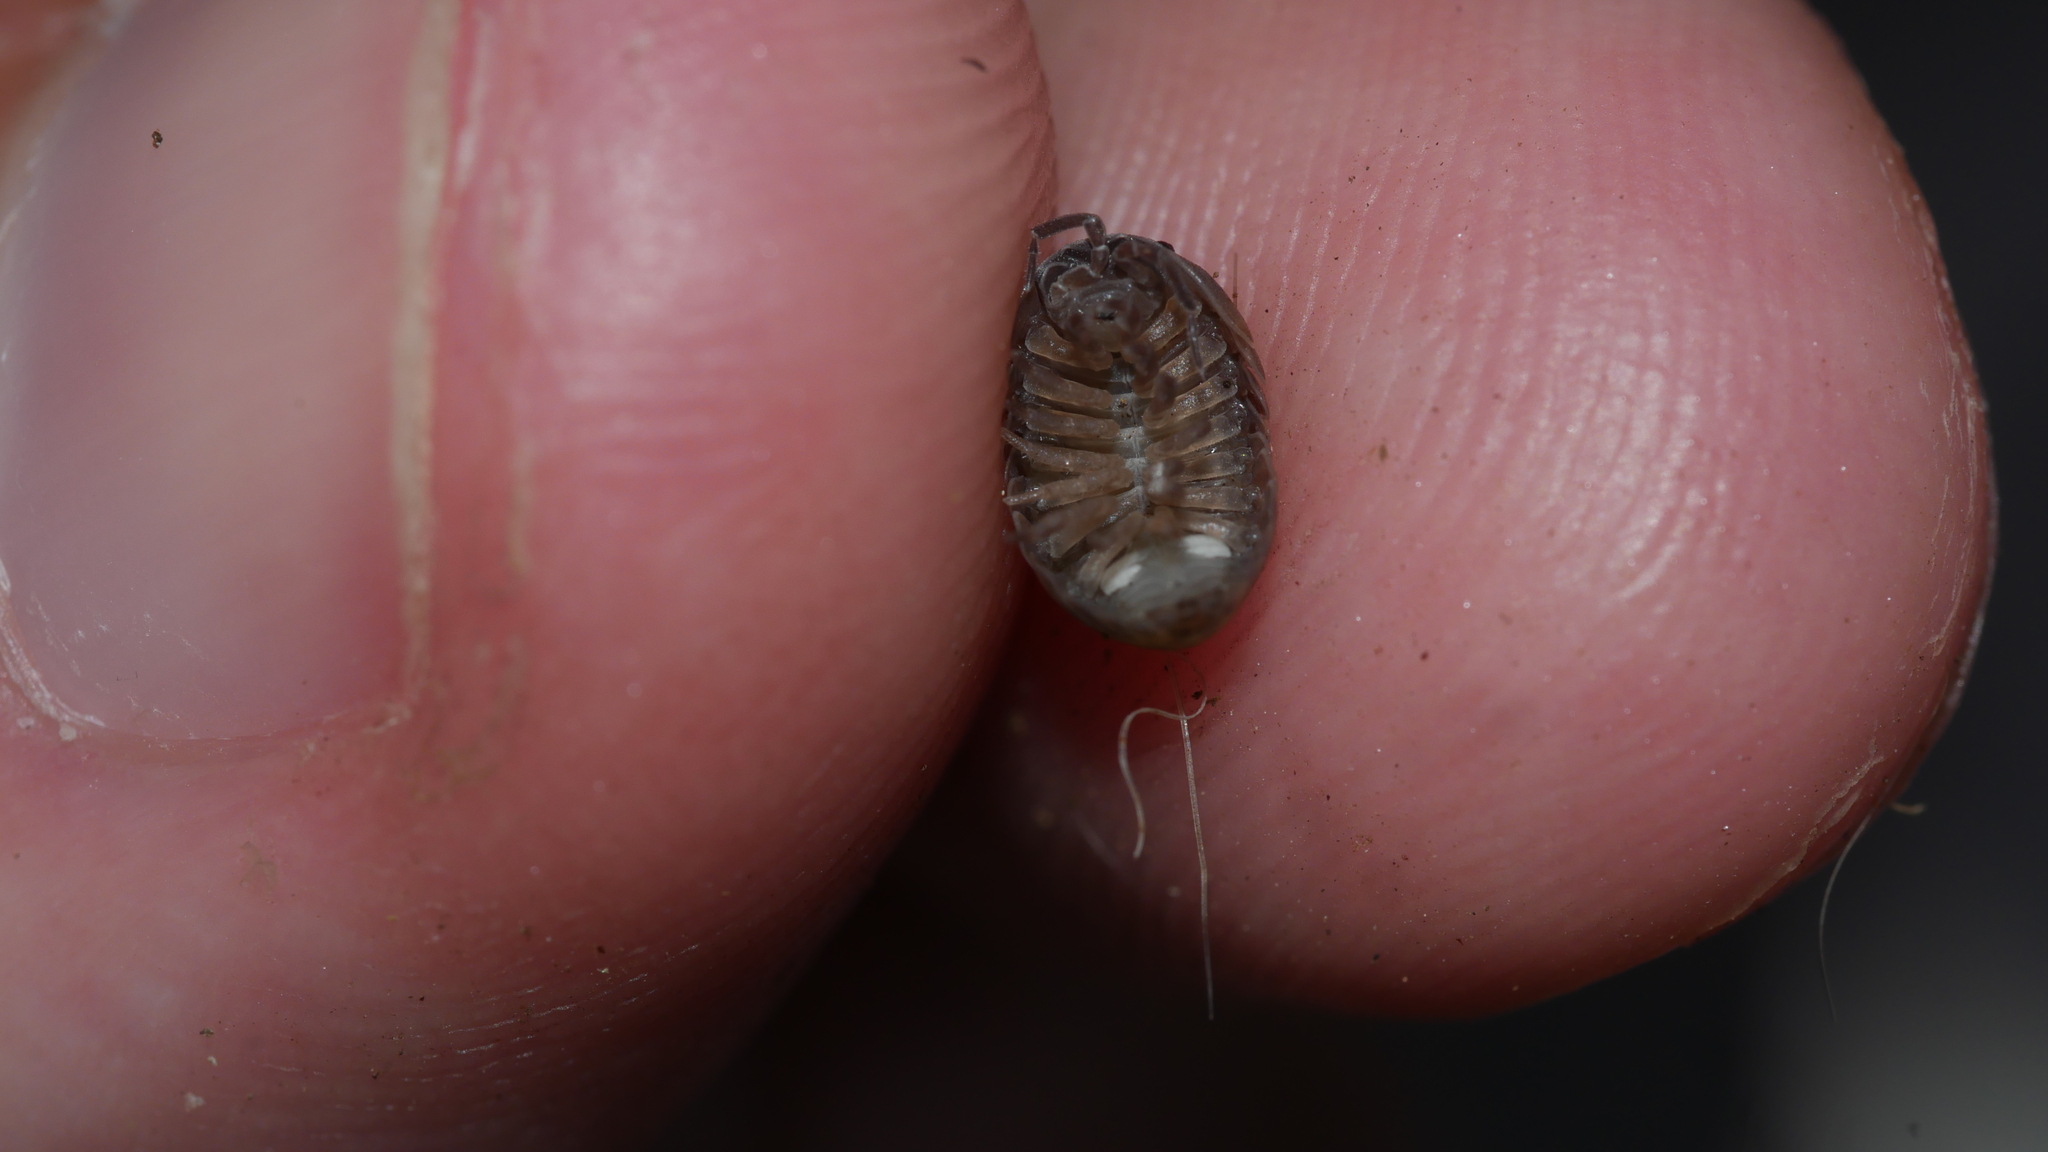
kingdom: Animalia
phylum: Arthropoda
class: Malacostraca
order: Isopoda
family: Armadillidiidae
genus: Armadillidium
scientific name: Armadillidium vulgare
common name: Common pill woodlouse
